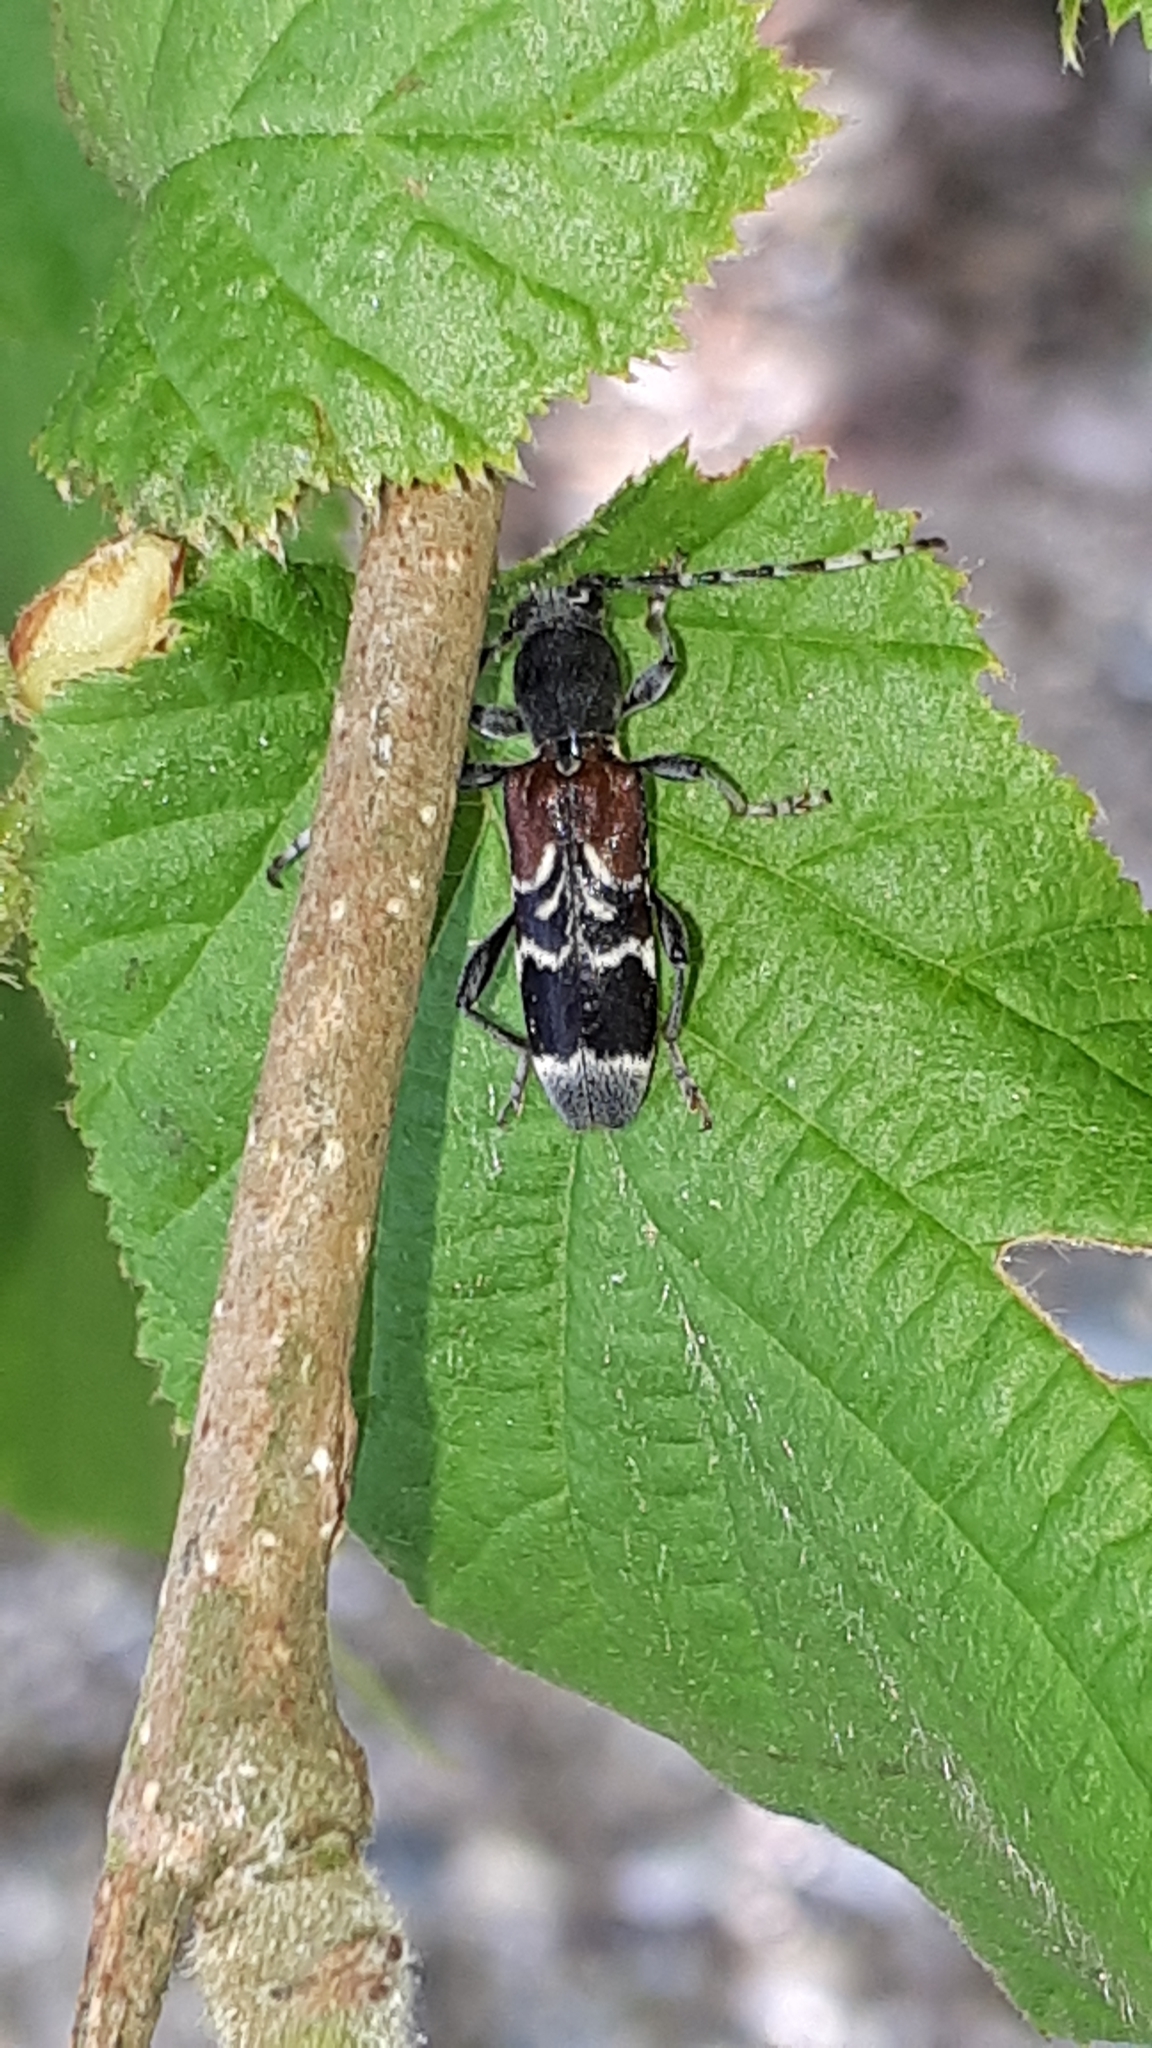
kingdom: Animalia
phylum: Arthropoda
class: Insecta
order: Coleoptera
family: Cerambycidae
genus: Anaglyptus
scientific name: Anaglyptus mysticus
